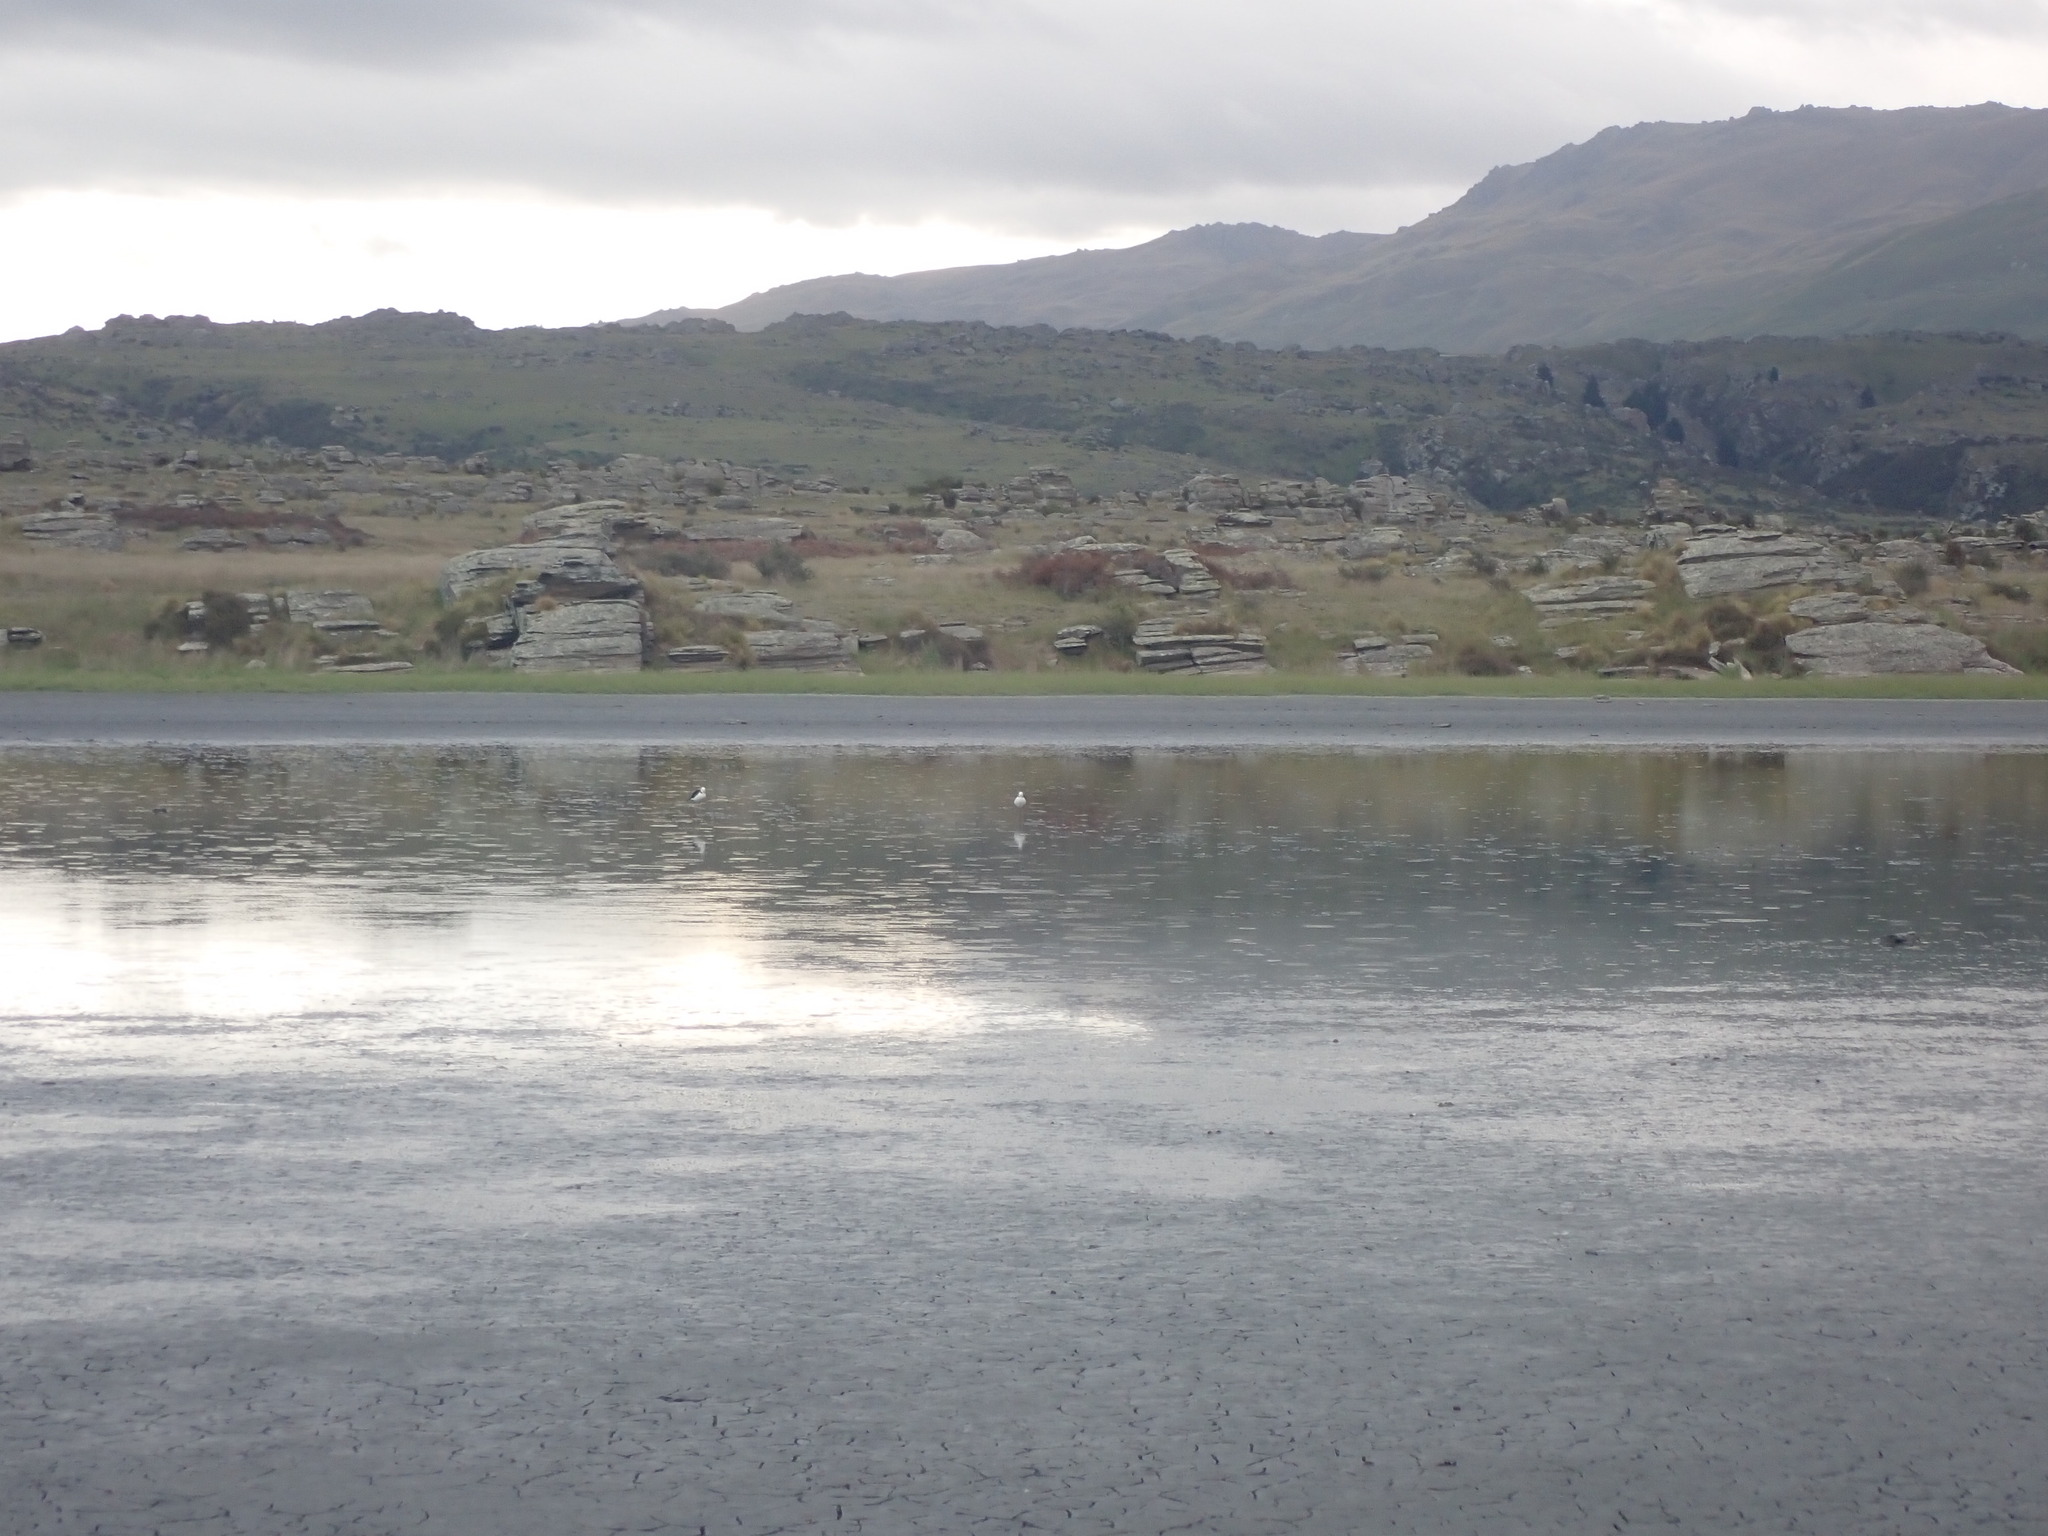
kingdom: Animalia
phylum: Chordata
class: Aves
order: Charadriiformes
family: Recurvirostridae
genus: Himantopus
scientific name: Himantopus leucocephalus
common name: White-headed stilt
